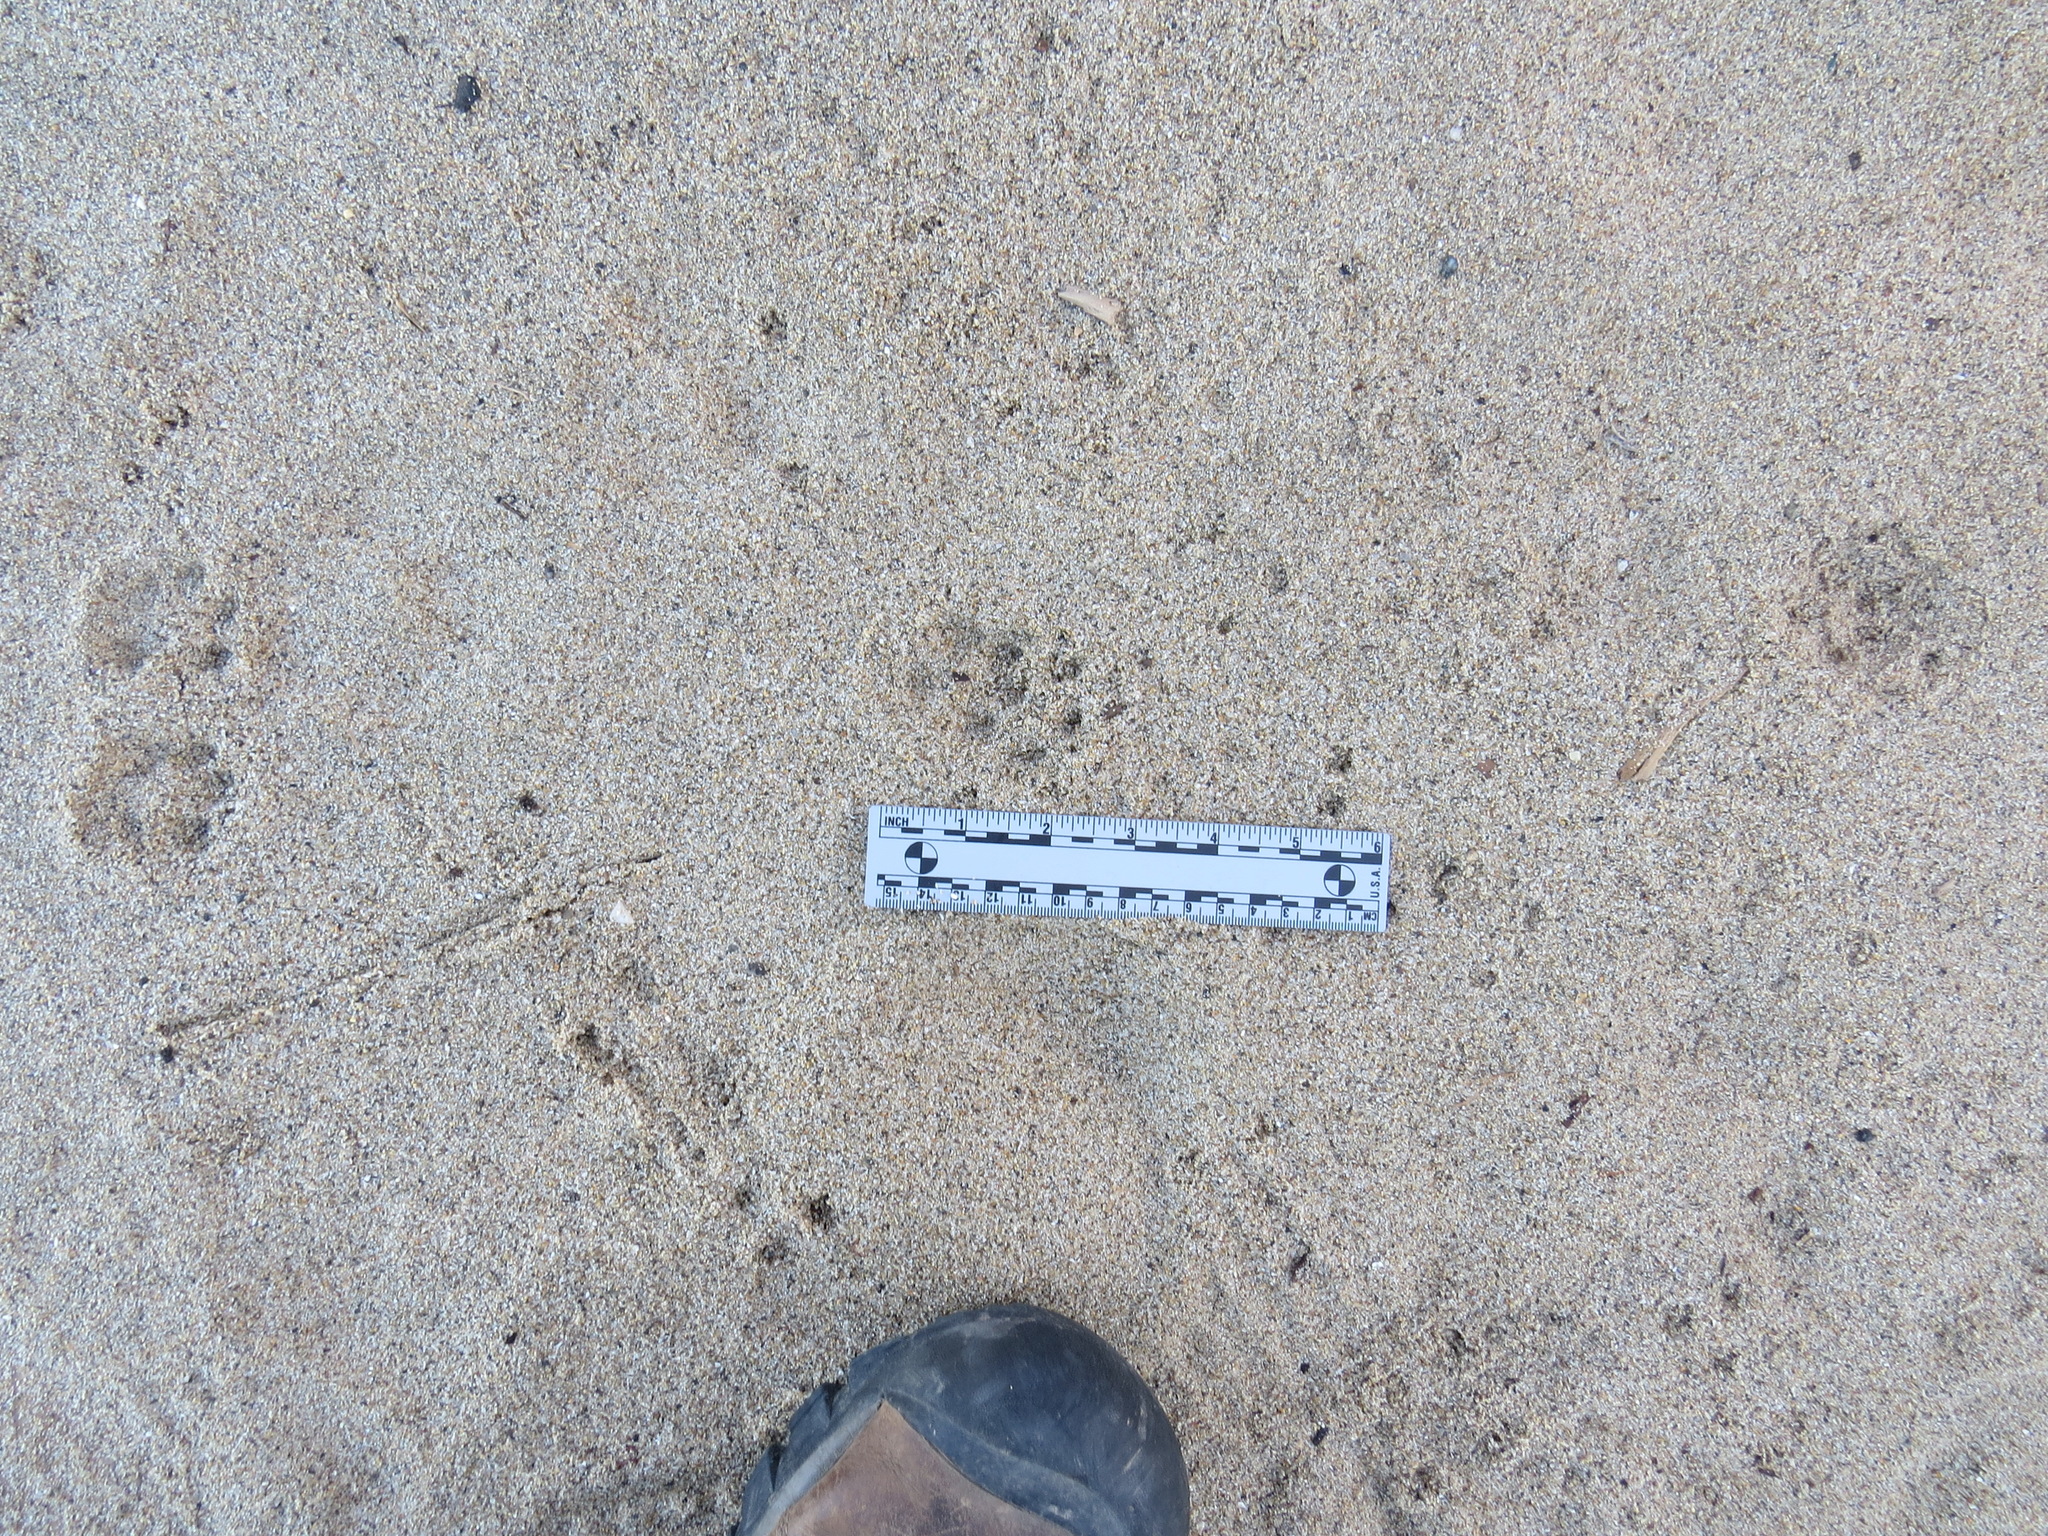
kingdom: Animalia
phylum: Chordata
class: Mammalia
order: Carnivora
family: Canidae
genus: Urocyon
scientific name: Urocyon cinereoargenteus
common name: Gray fox
